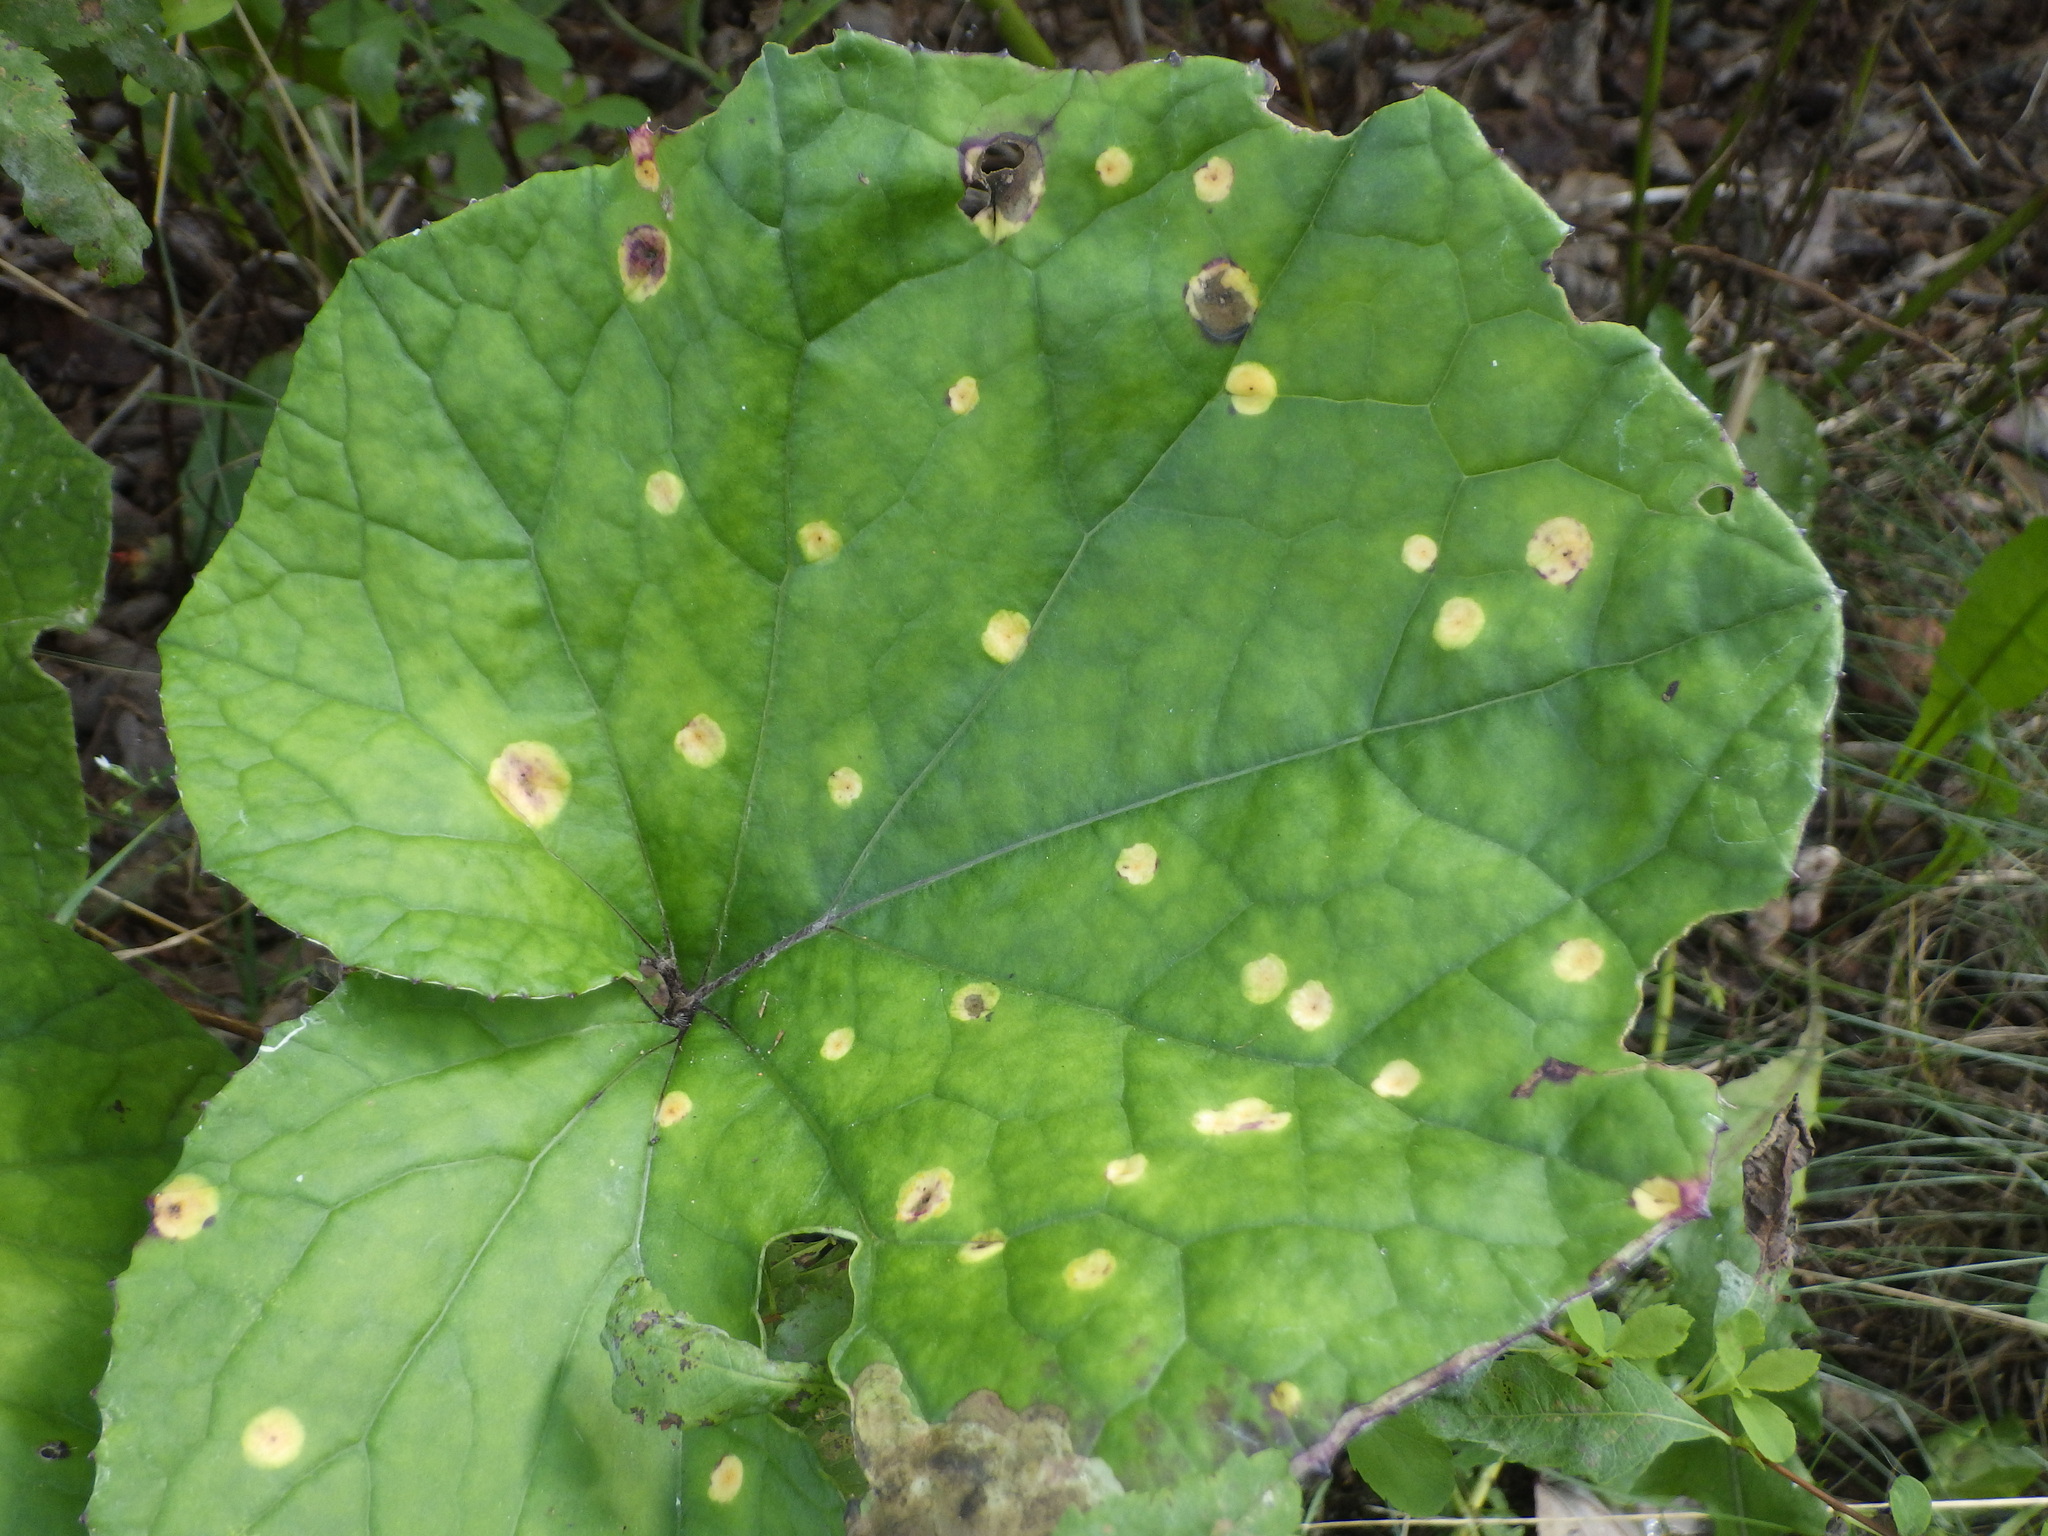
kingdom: Plantae
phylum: Tracheophyta
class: Magnoliopsida
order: Asterales
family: Asteraceae
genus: Tussilago
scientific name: Tussilago farfara
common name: Coltsfoot
